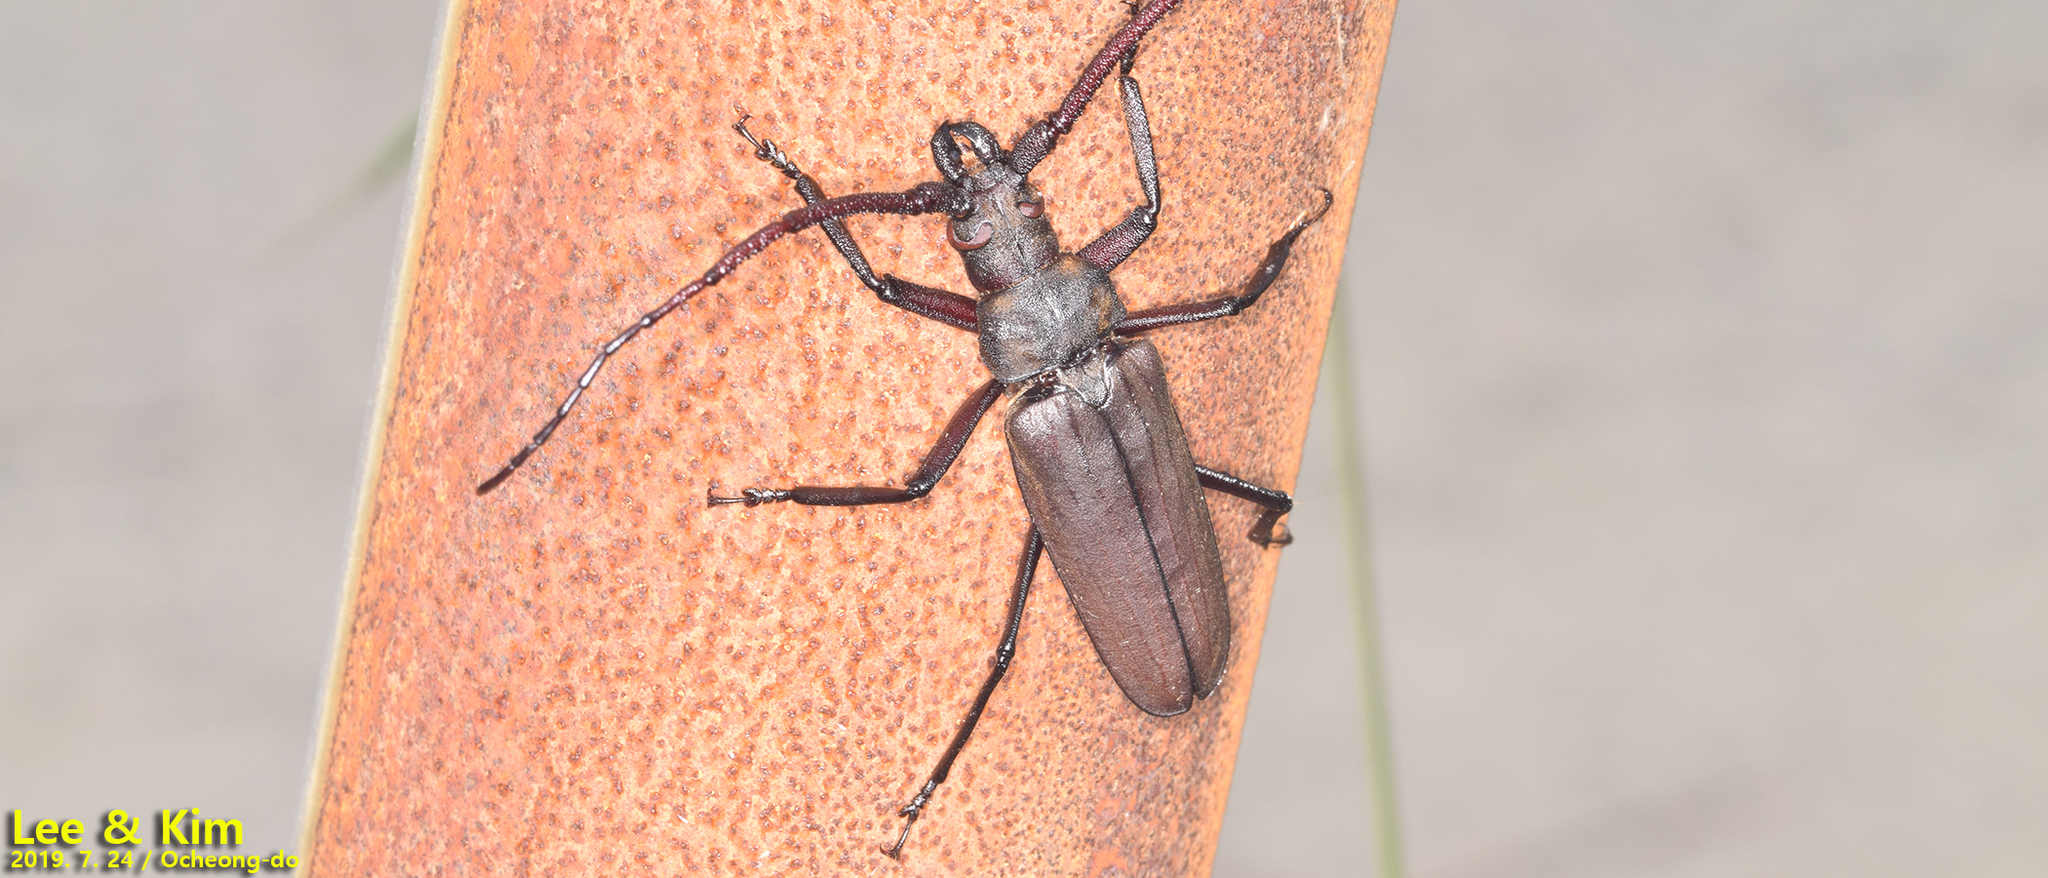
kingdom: Animalia
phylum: Arthropoda
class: Insecta
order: Coleoptera
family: Cerambycidae
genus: Aegosoma
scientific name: Aegosoma sinicum
